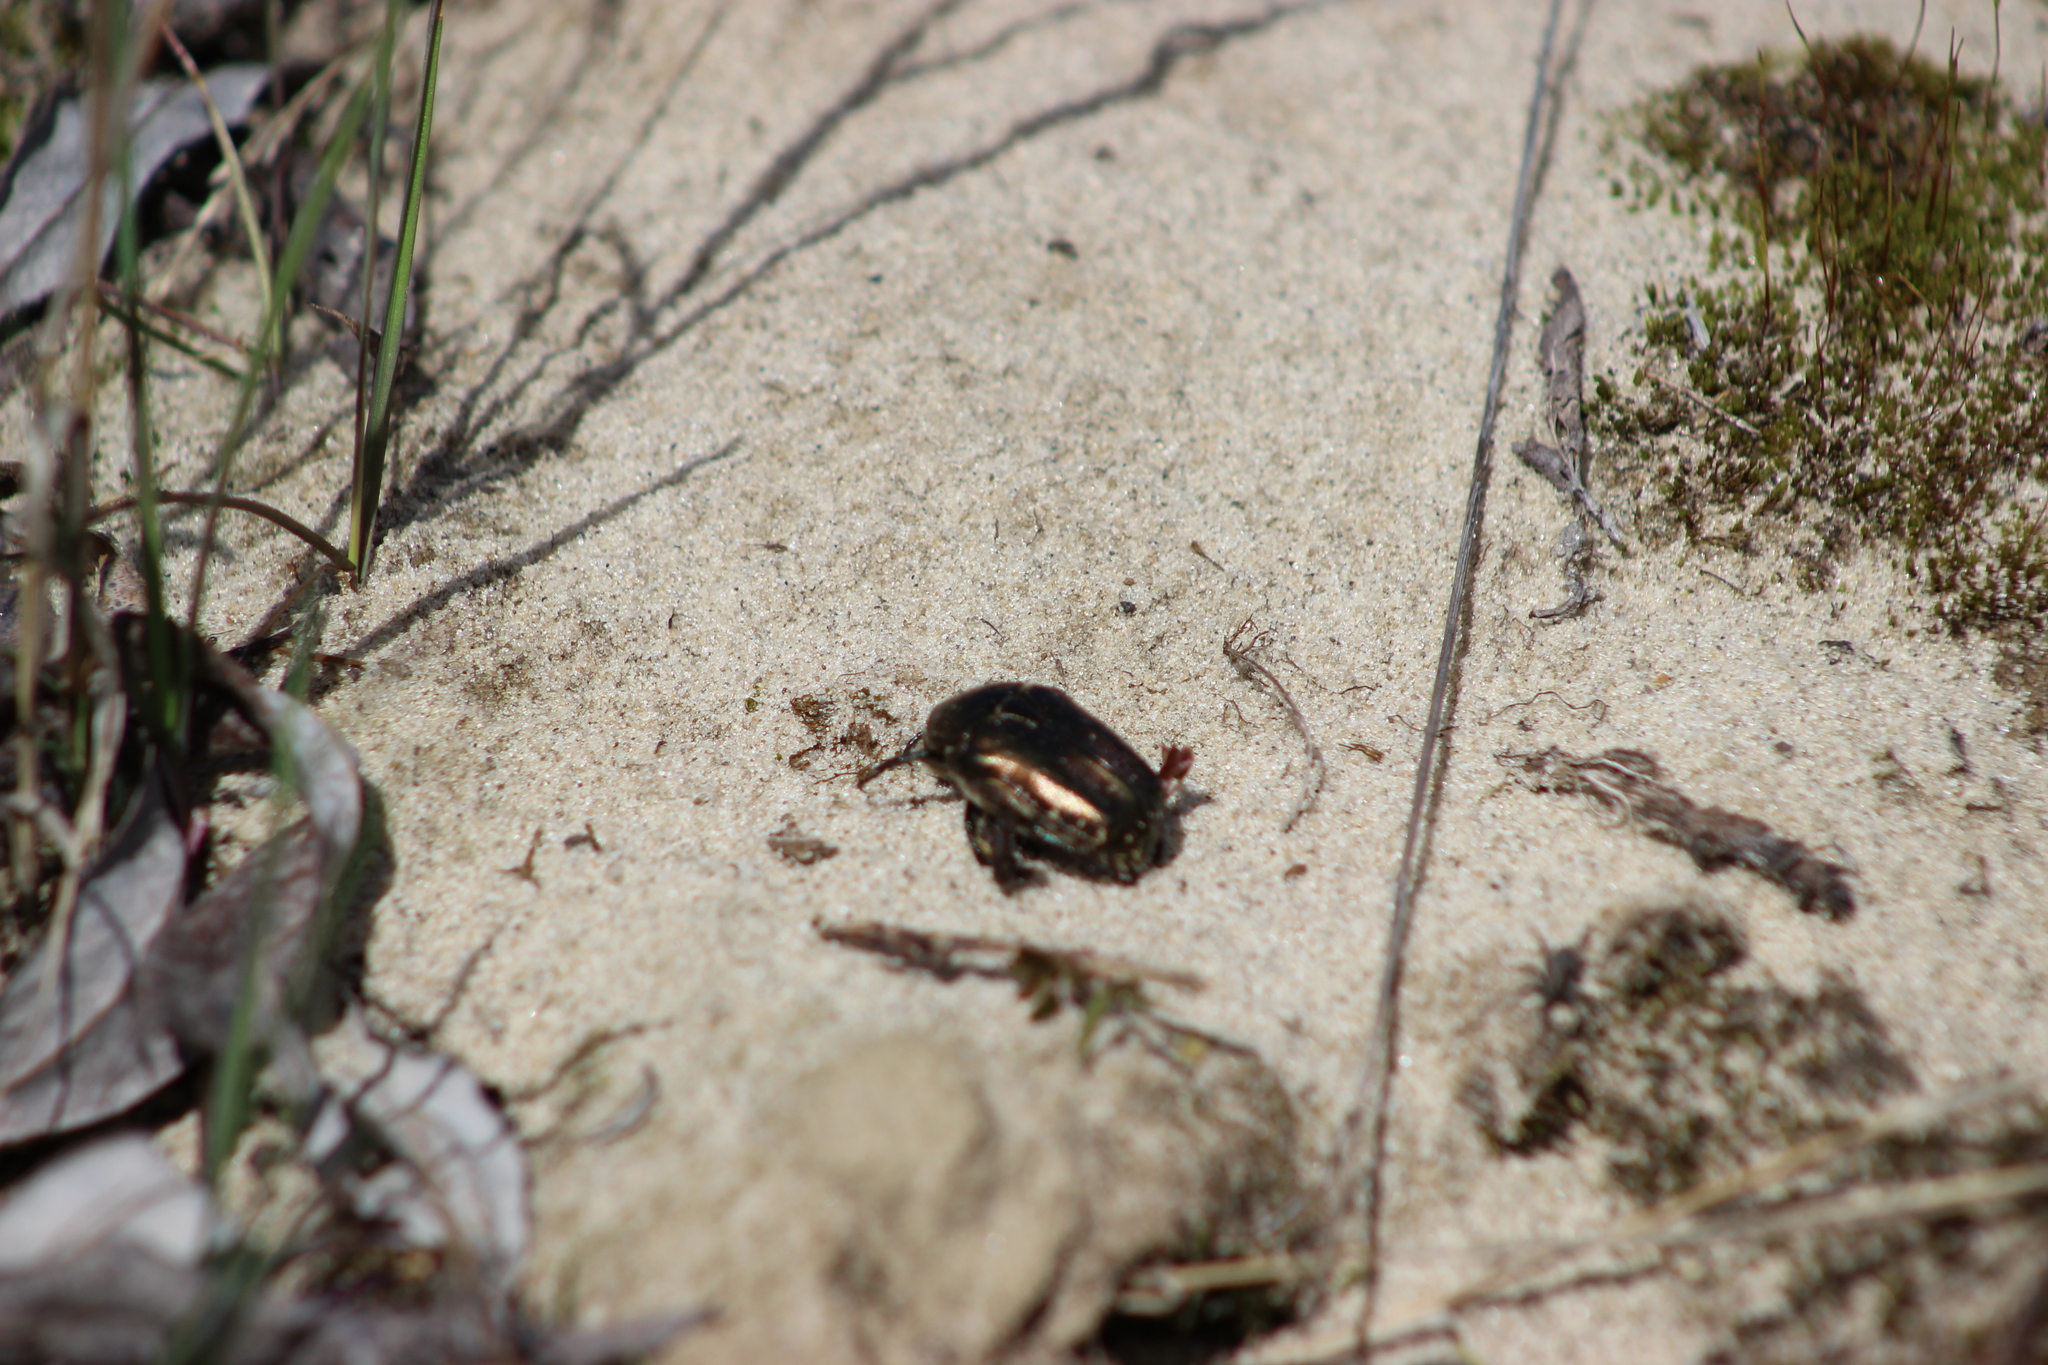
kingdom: Animalia
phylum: Arthropoda
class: Insecta
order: Coleoptera
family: Scarabaeidae
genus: Cetonia
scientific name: Cetonia aurata
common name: Rose chafer
